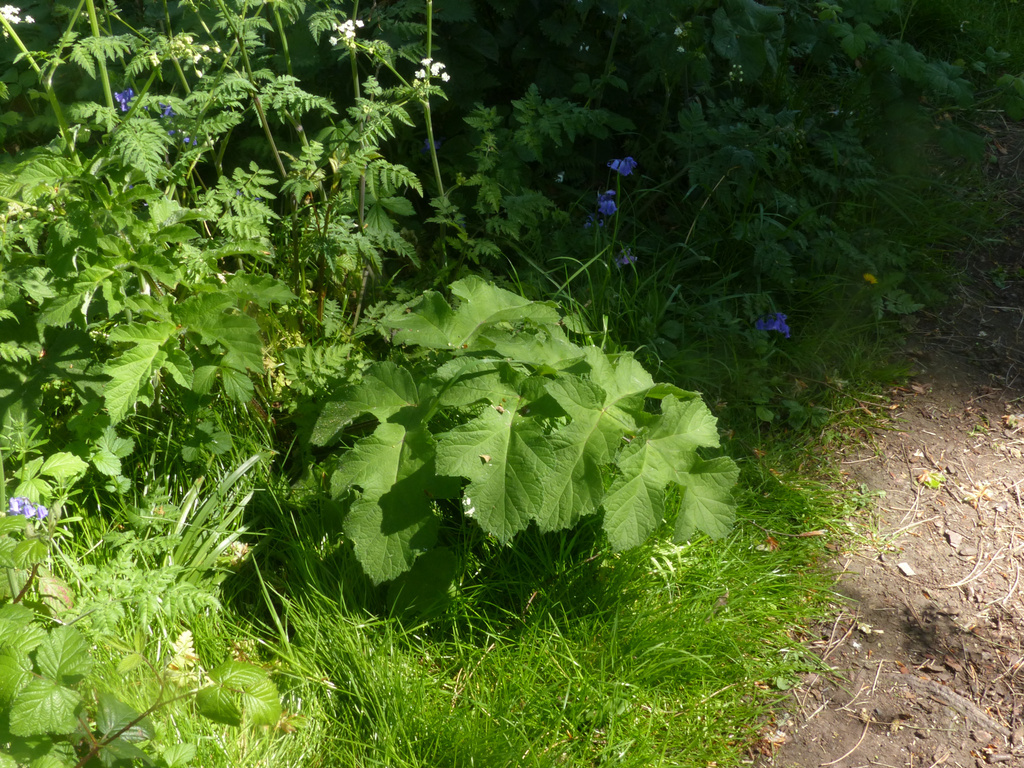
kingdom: Plantae
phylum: Tracheophyta
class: Magnoliopsida
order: Apiales
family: Apiaceae
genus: Heracleum
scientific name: Heracleum sphondylium
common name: Hogweed
